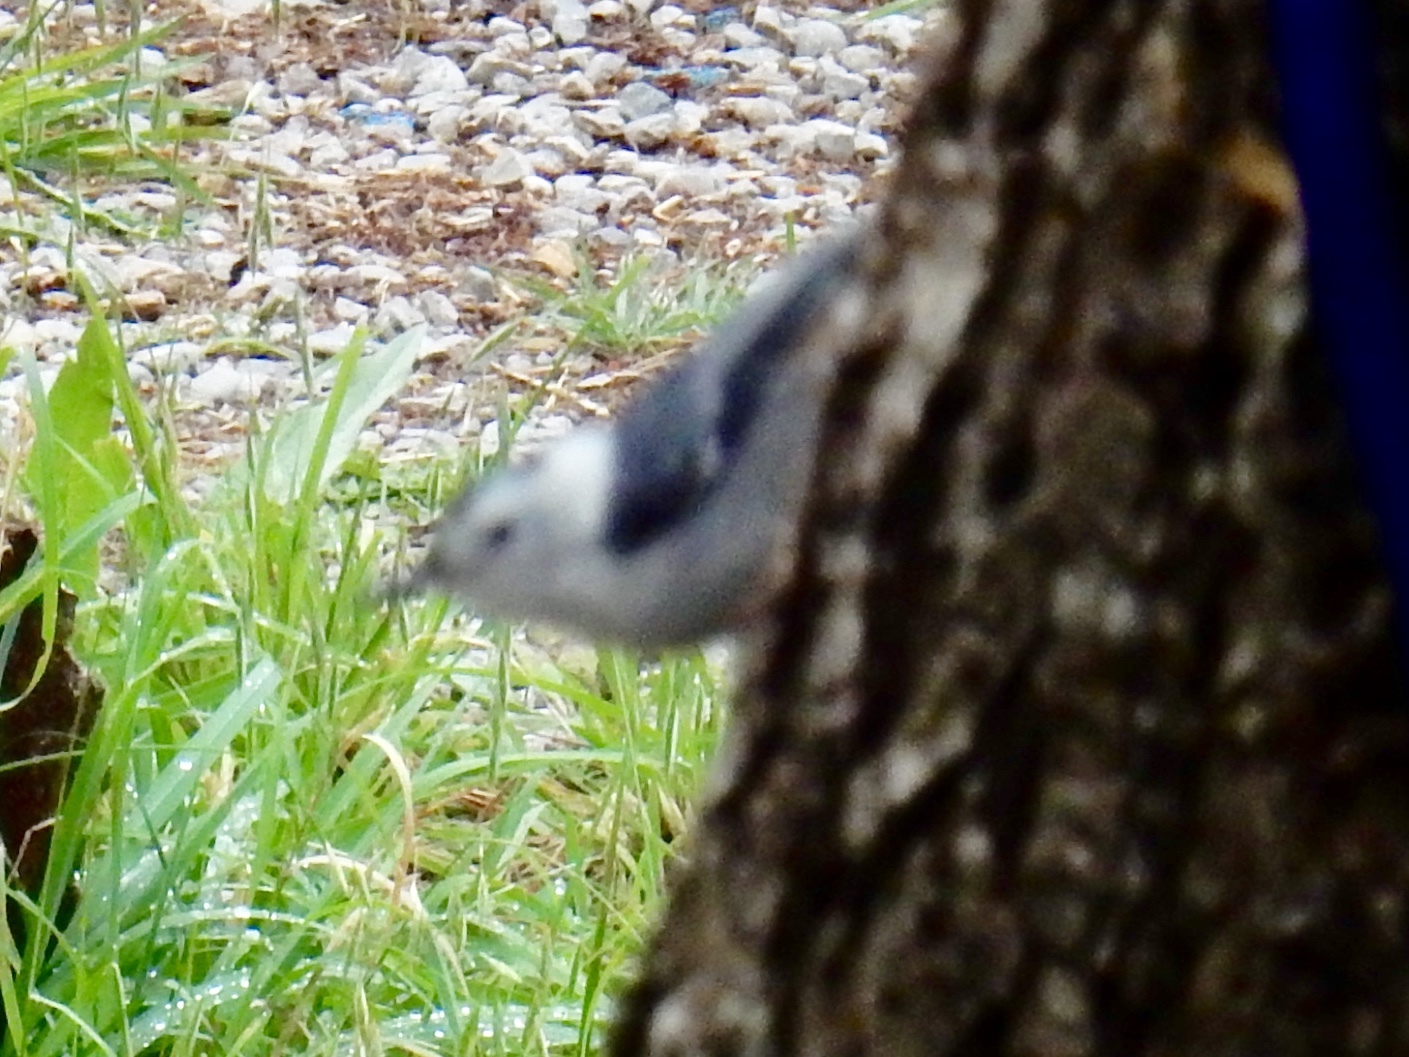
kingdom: Animalia
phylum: Chordata
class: Aves
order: Passeriformes
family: Sittidae
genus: Sitta
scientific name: Sitta carolinensis
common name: White-breasted nuthatch
